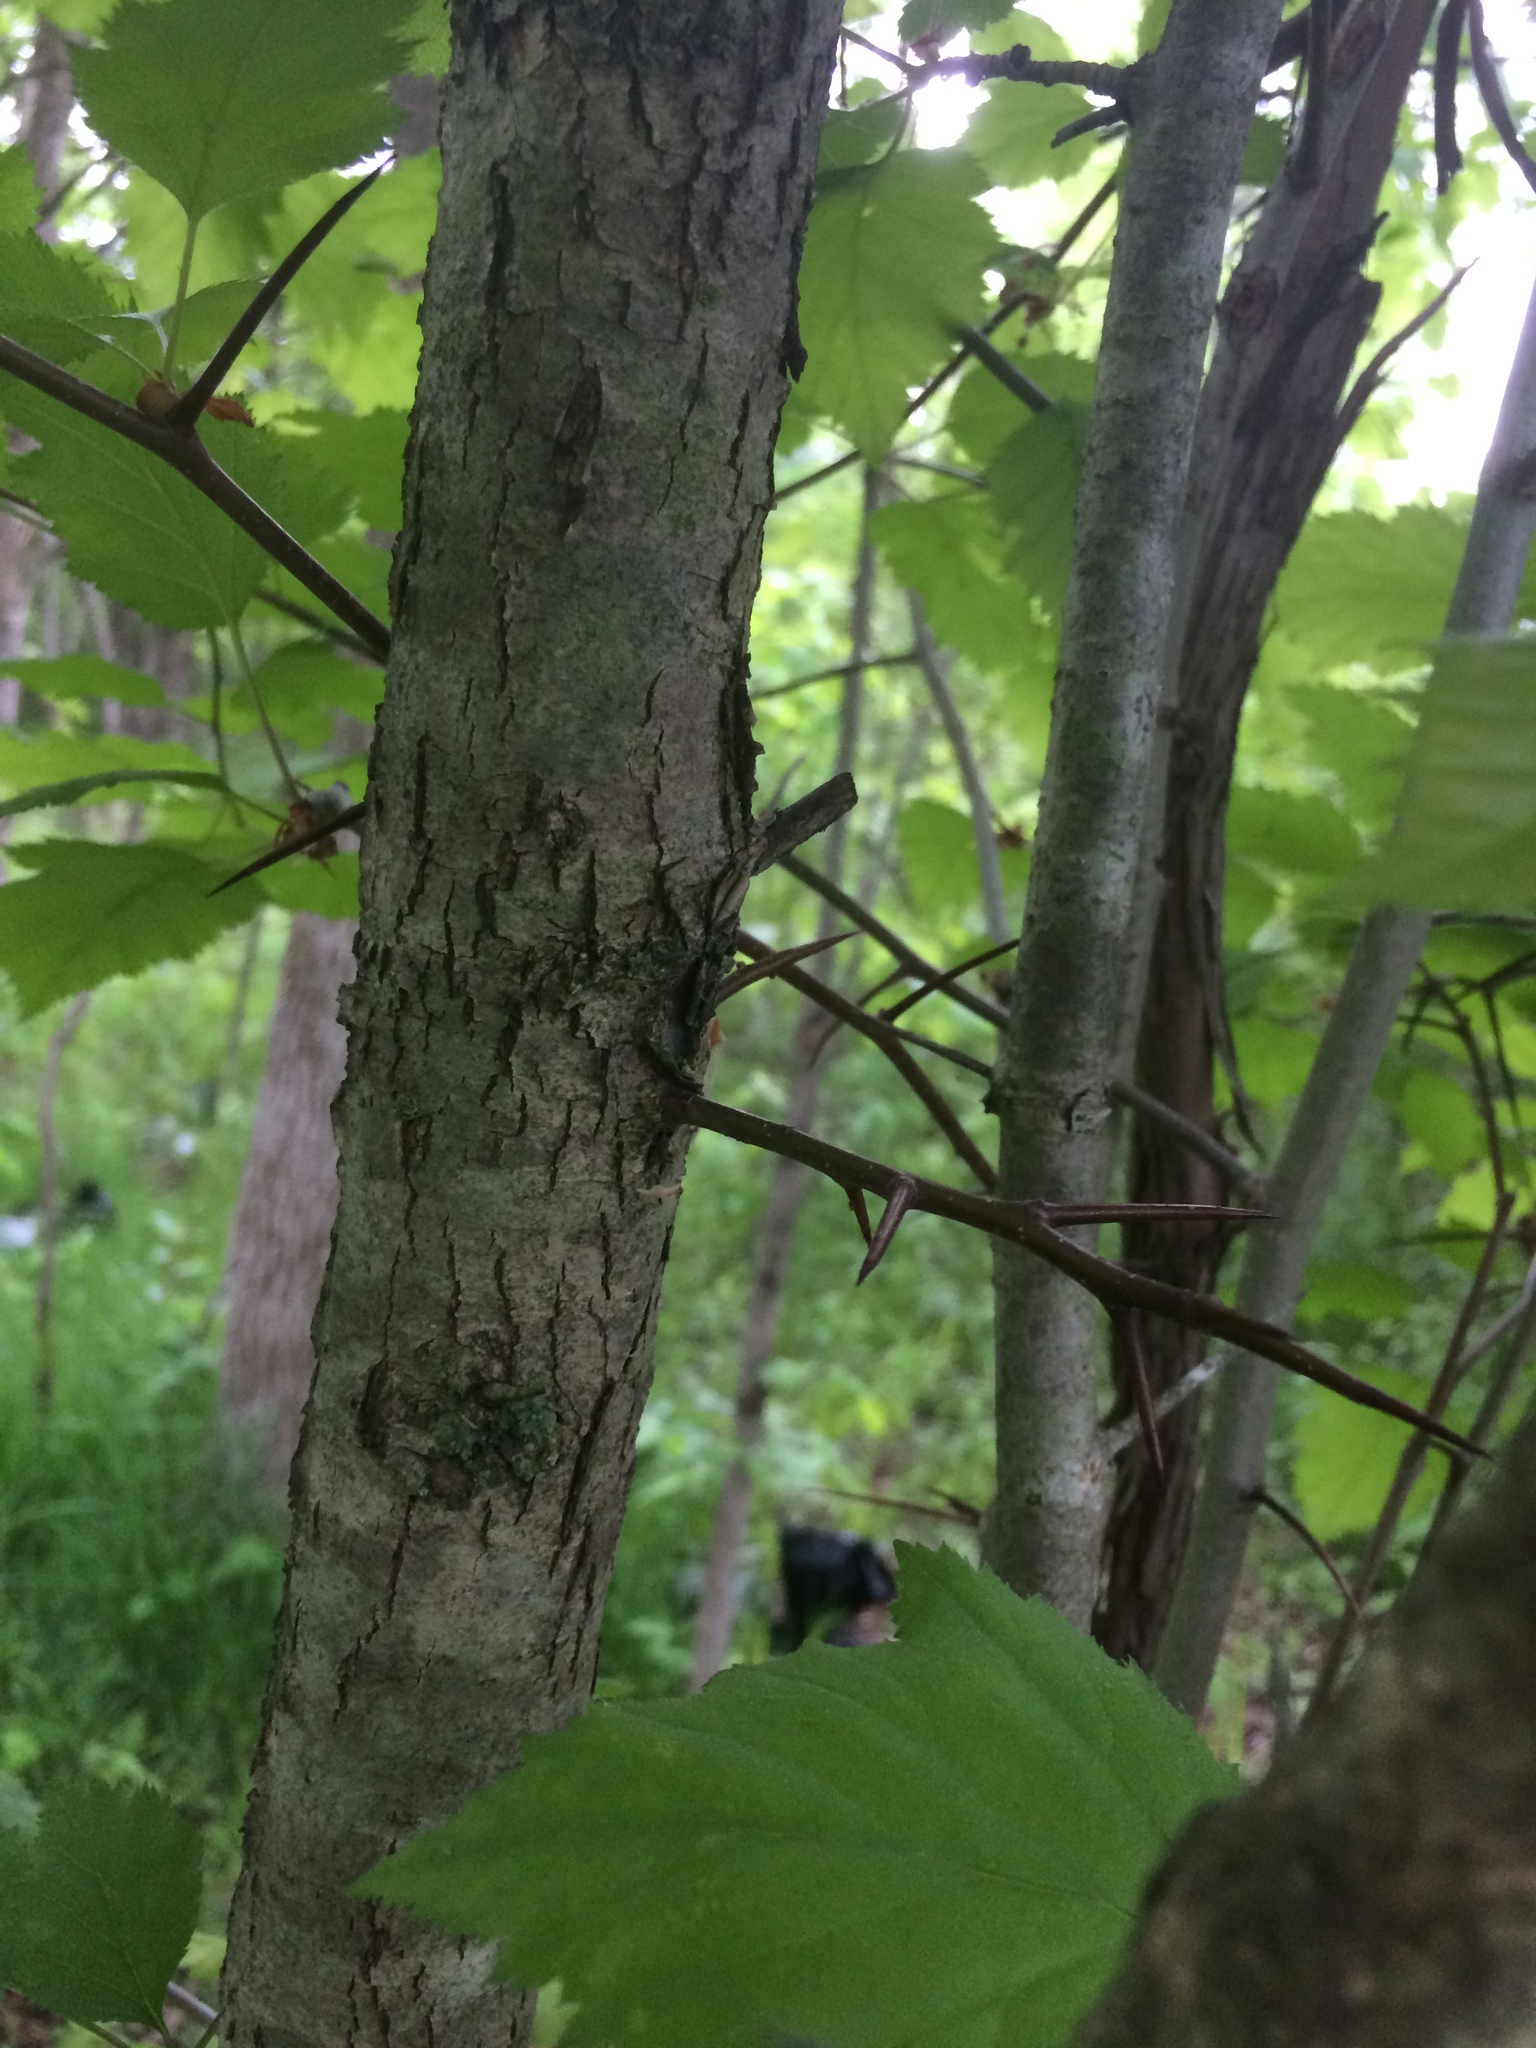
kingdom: Plantae
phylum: Tracheophyta
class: Magnoliopsida
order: Rosales
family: Rosaceae
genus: Crataegus
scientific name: Crataegus holmesiana
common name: Holmes' hawthorn
